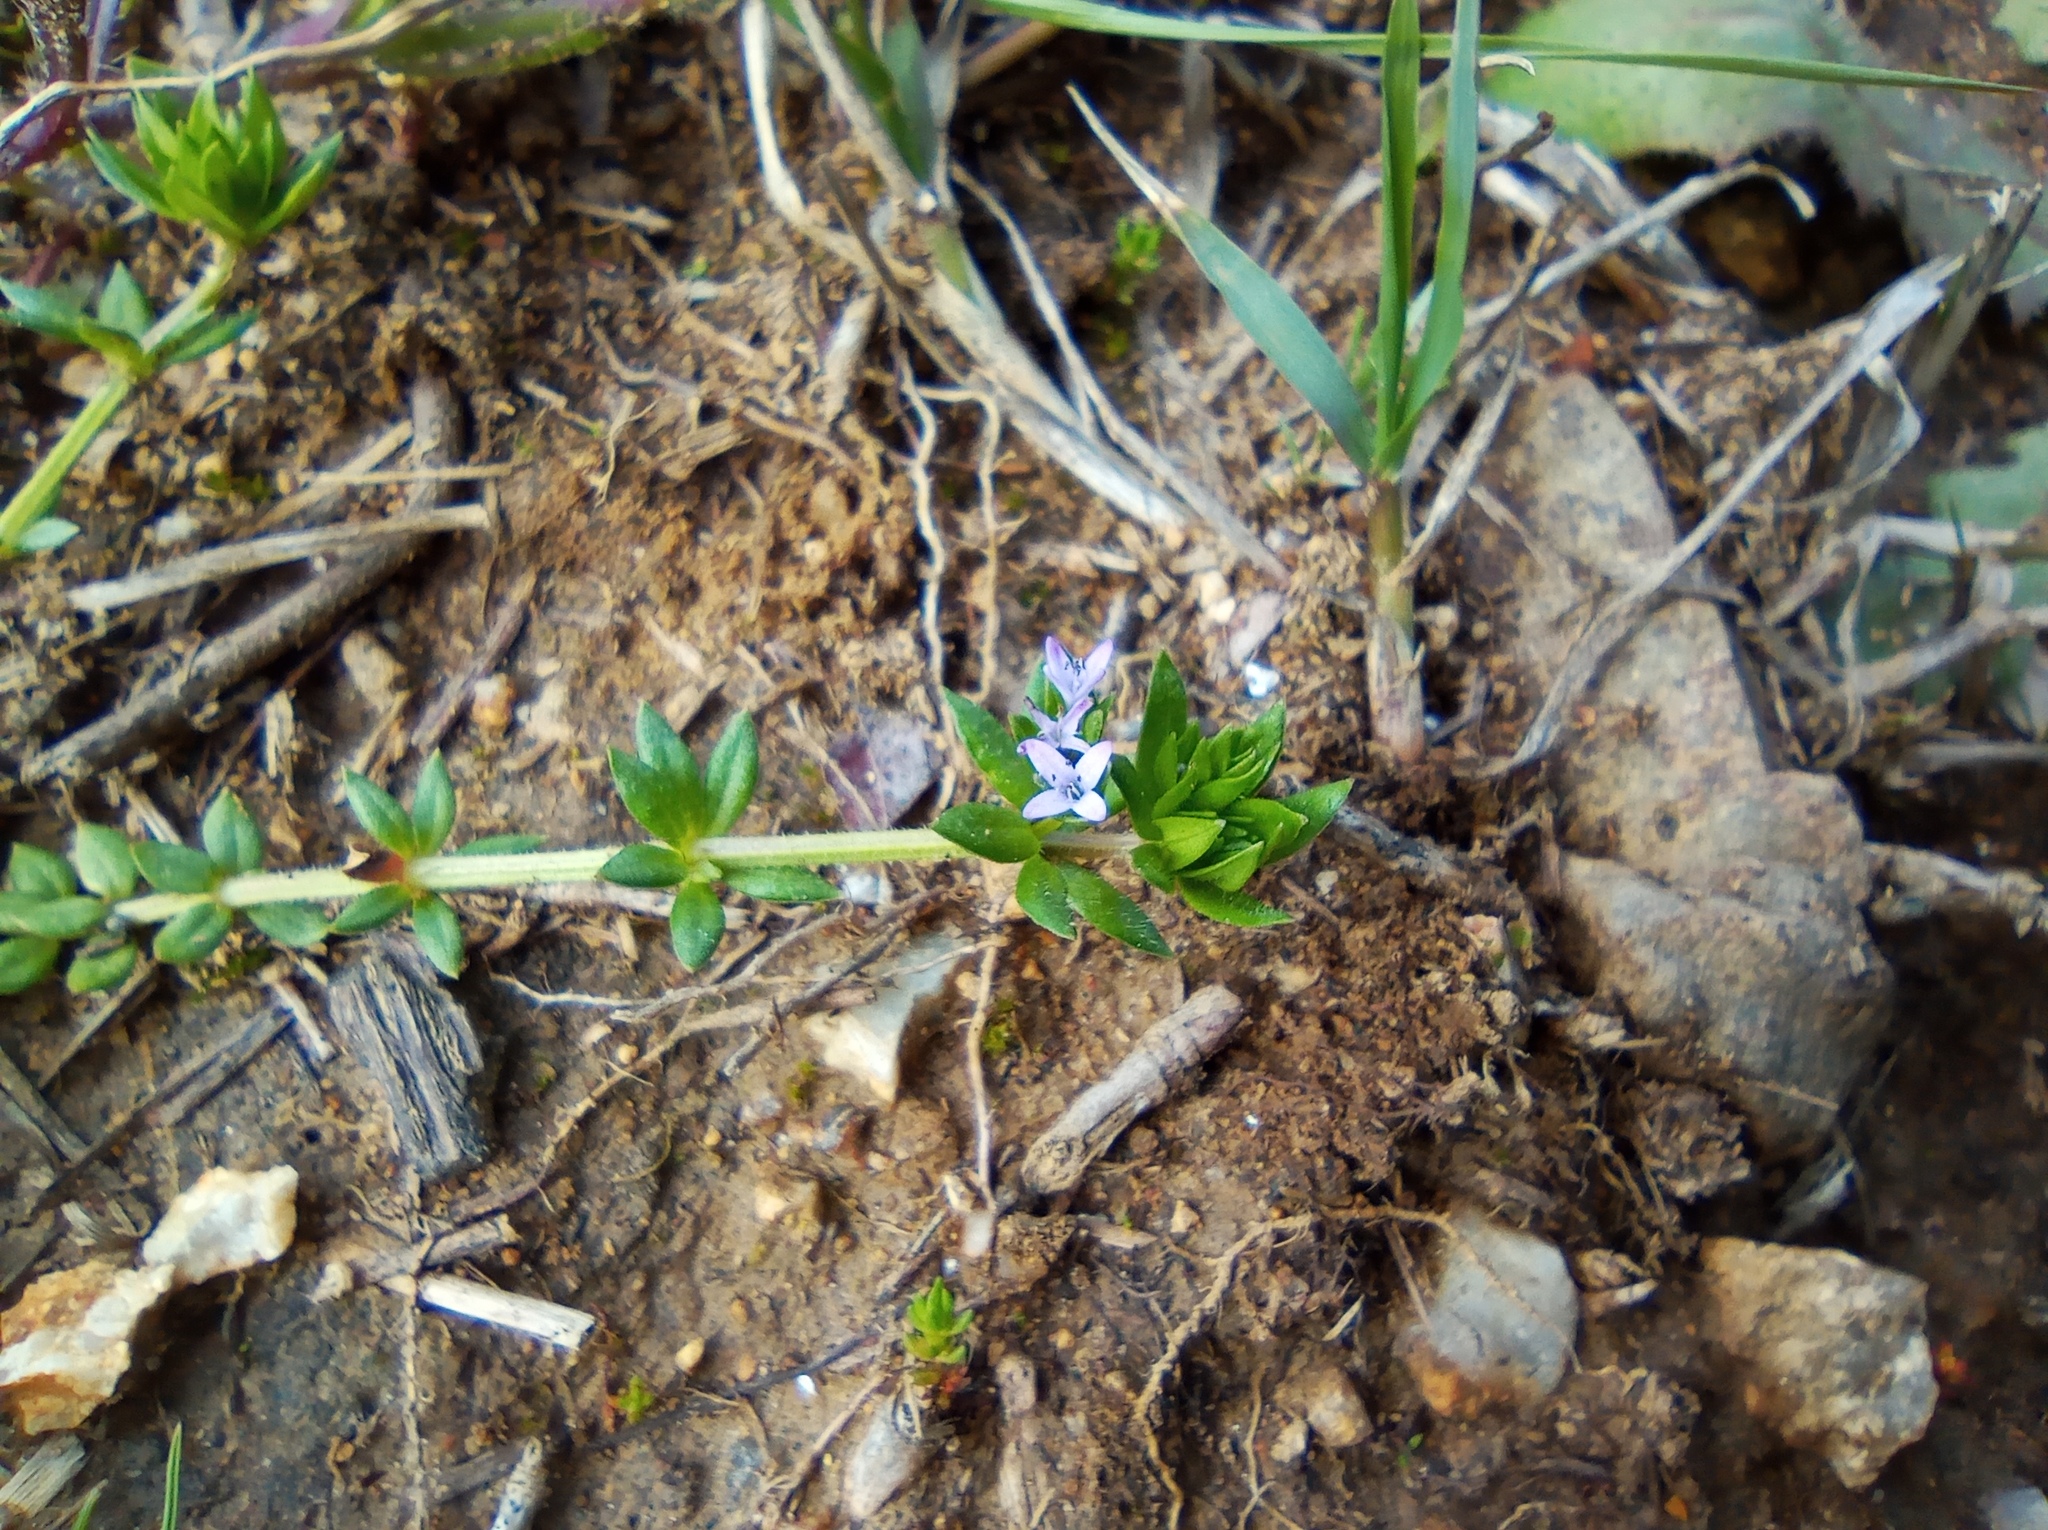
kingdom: Plantae
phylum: Tracheophyta
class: Magnoliopsida
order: Gentianales
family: Rubiaceae
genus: Sherardia
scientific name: Sherardia arvensis
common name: Field madder
